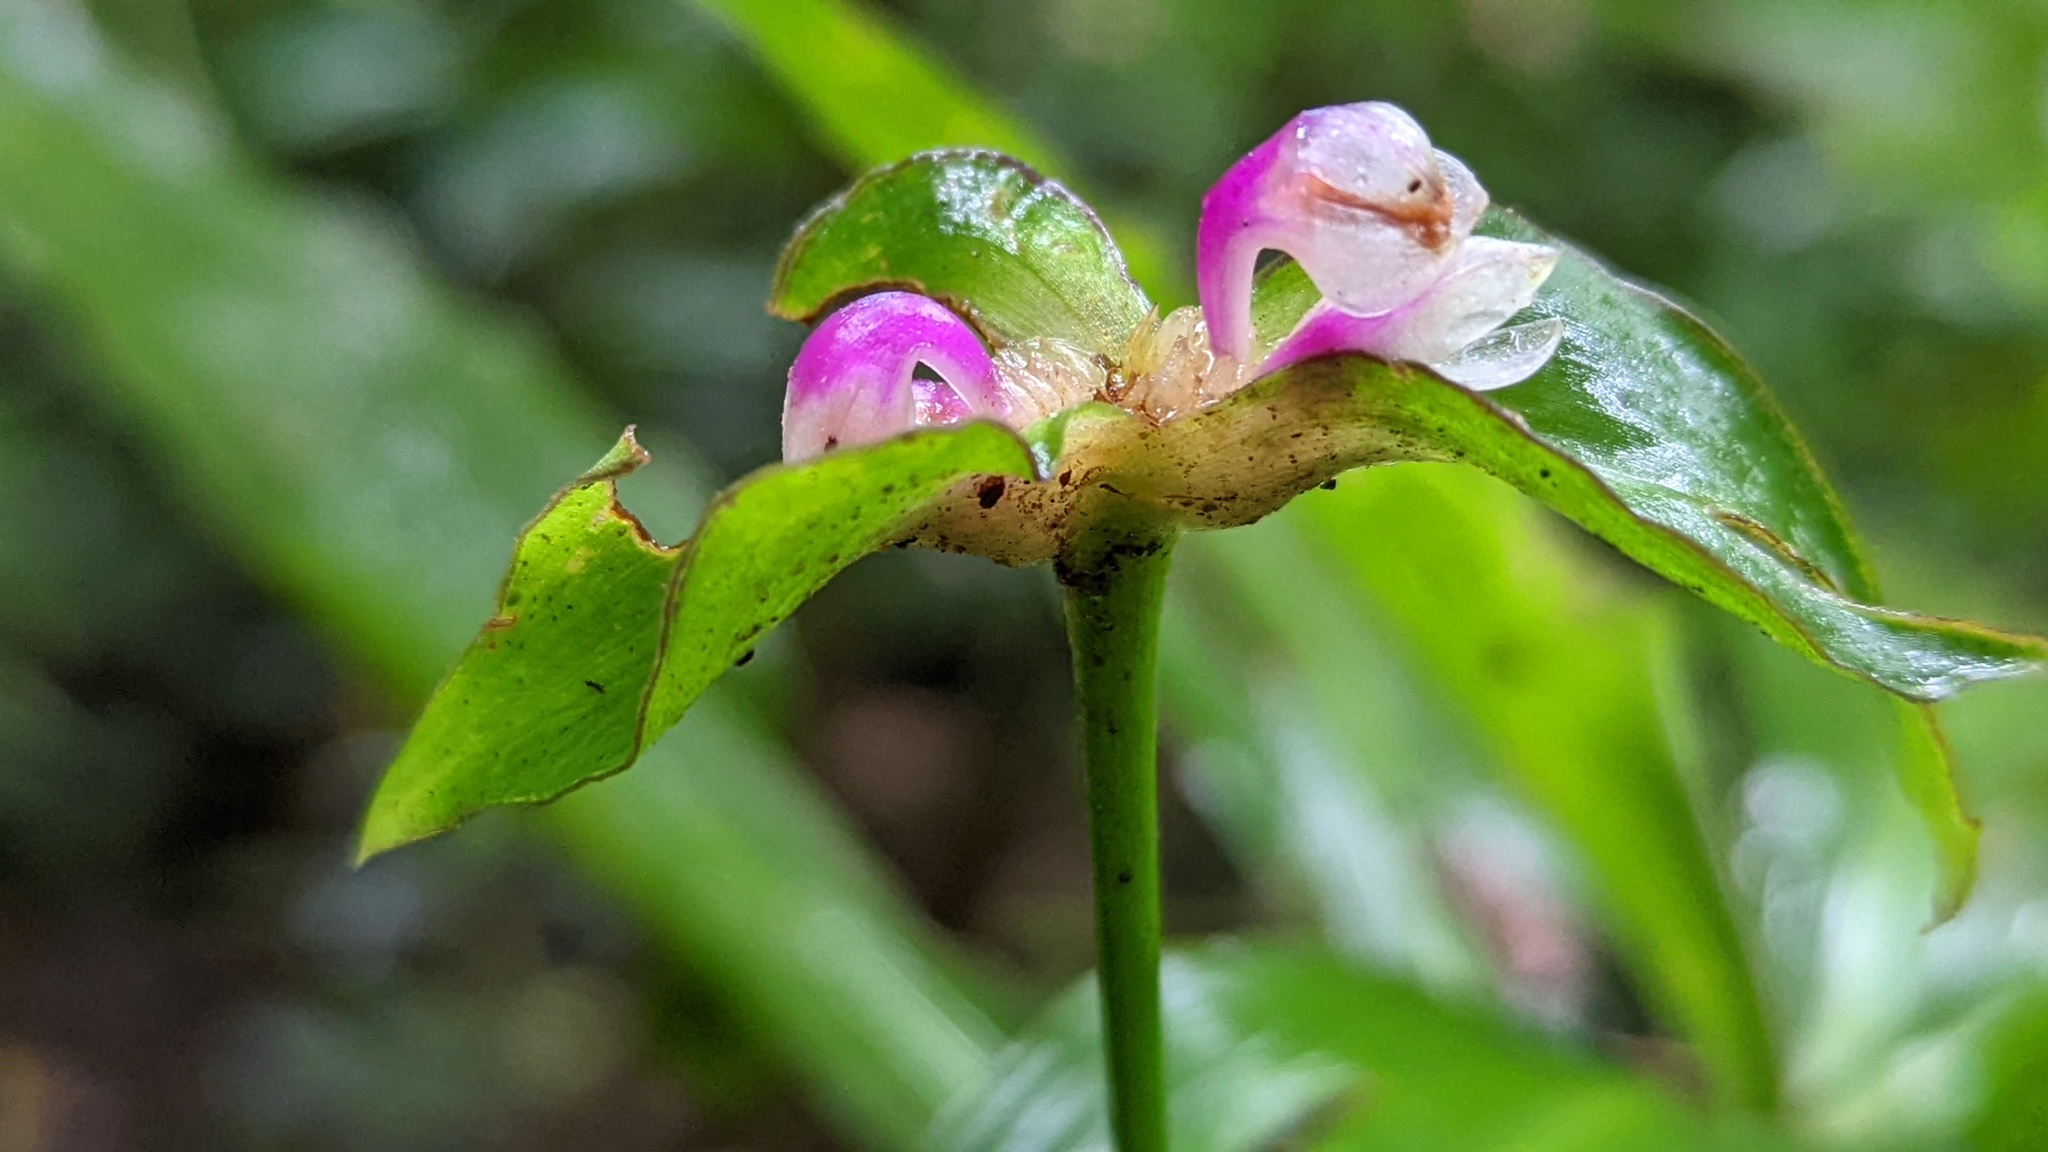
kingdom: Plantae
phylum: Tracheophyta
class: Liliopsida
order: Commelinales
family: Commelinaceae
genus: Tradescantia
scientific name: Tradescantia zanonia
